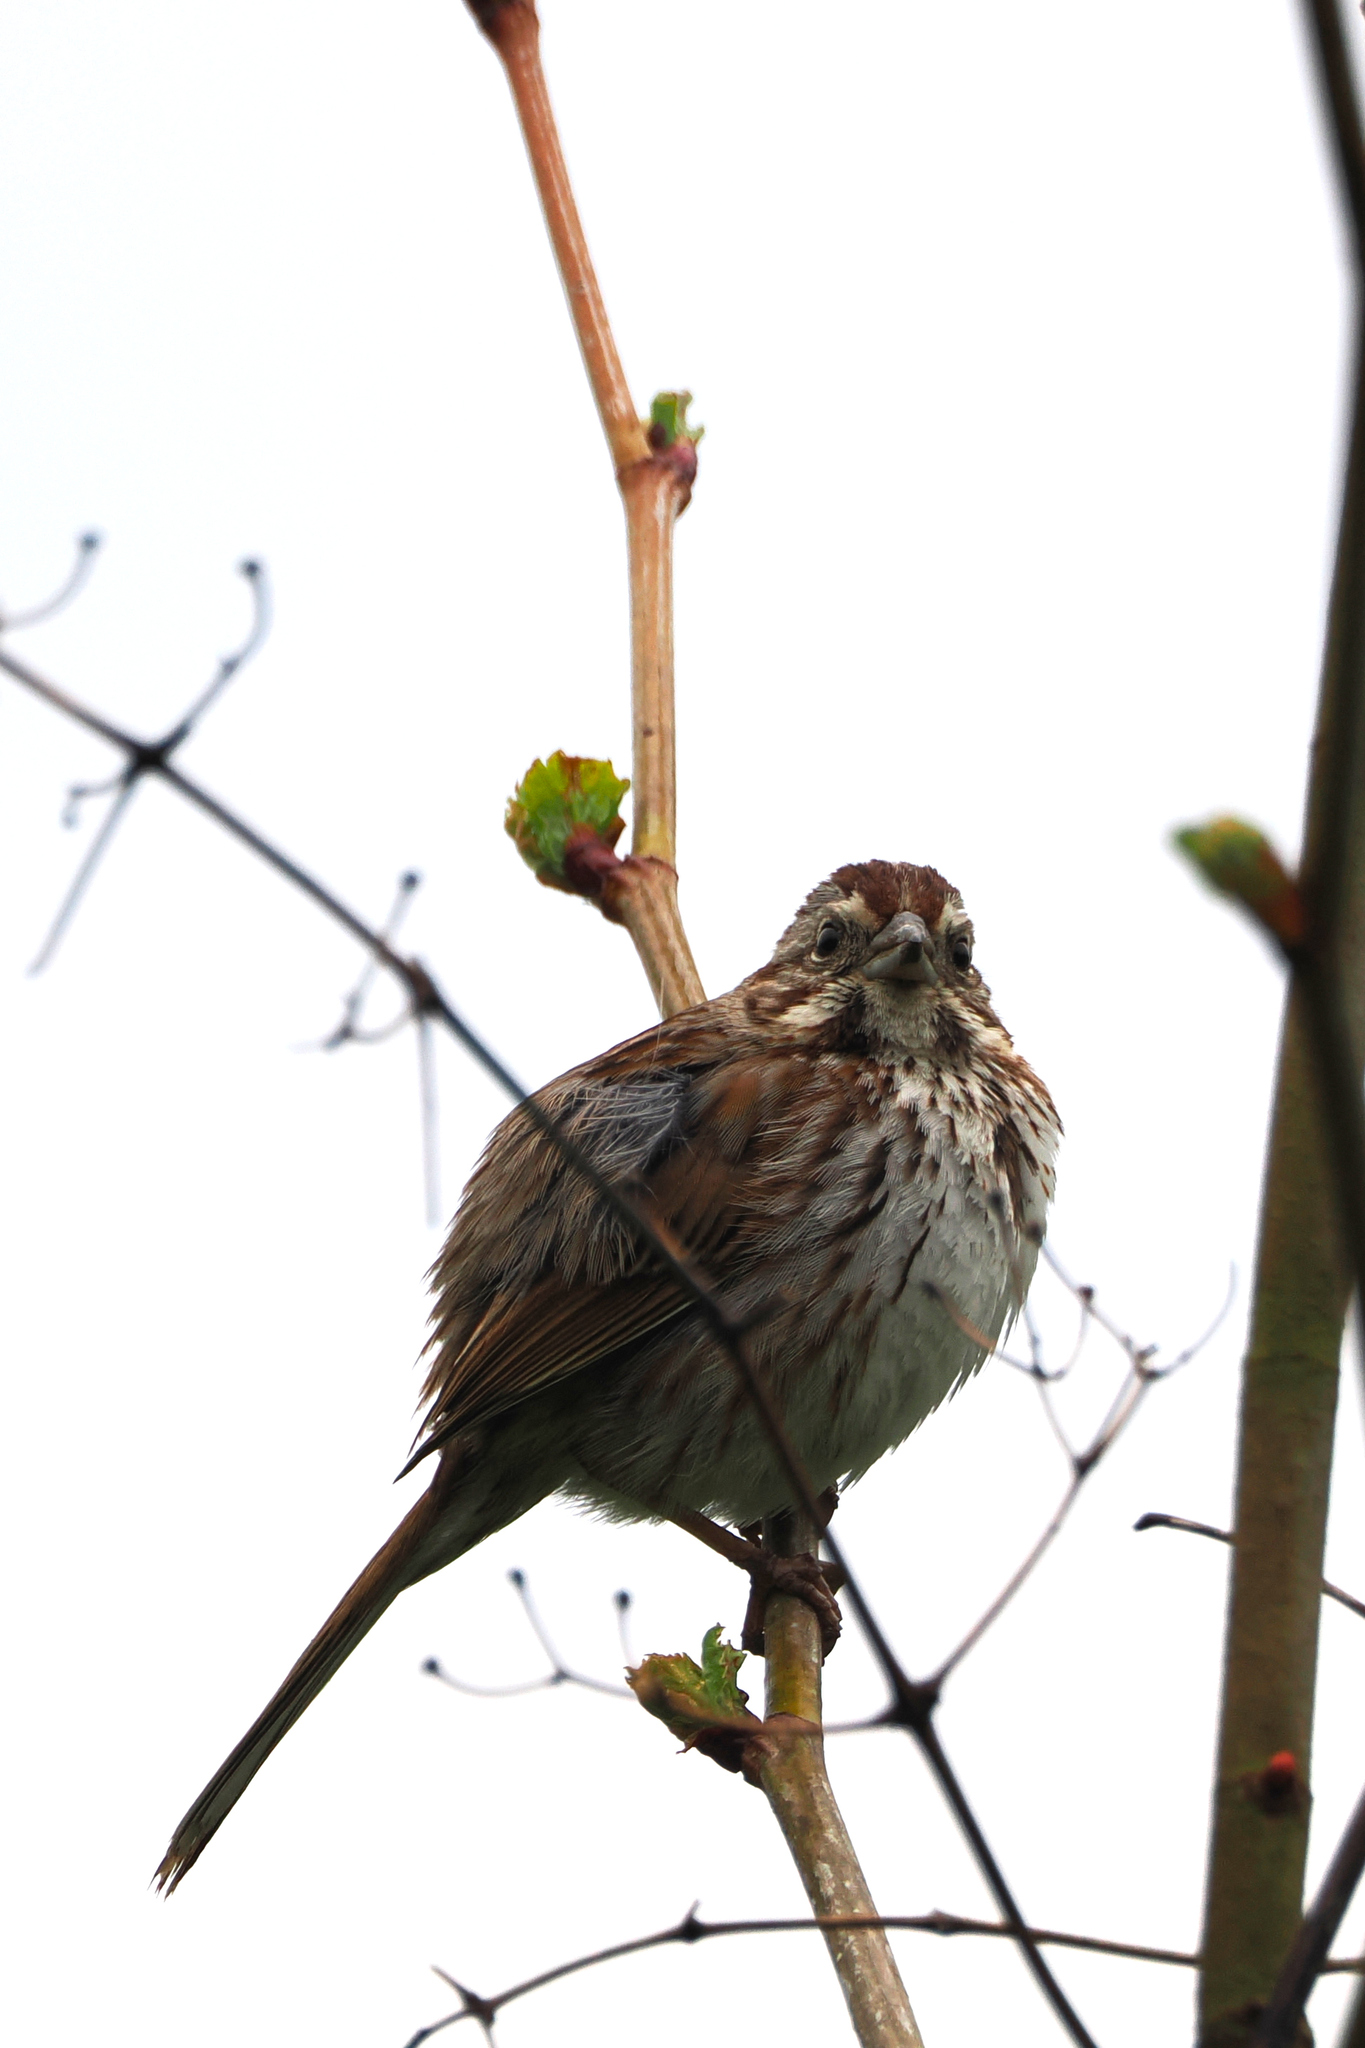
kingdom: Animalia
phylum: Chordata
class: Aves
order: Passeriformes
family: Passerellidae
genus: Melospiza
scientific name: Melospiza melodia
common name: Song sparrow
